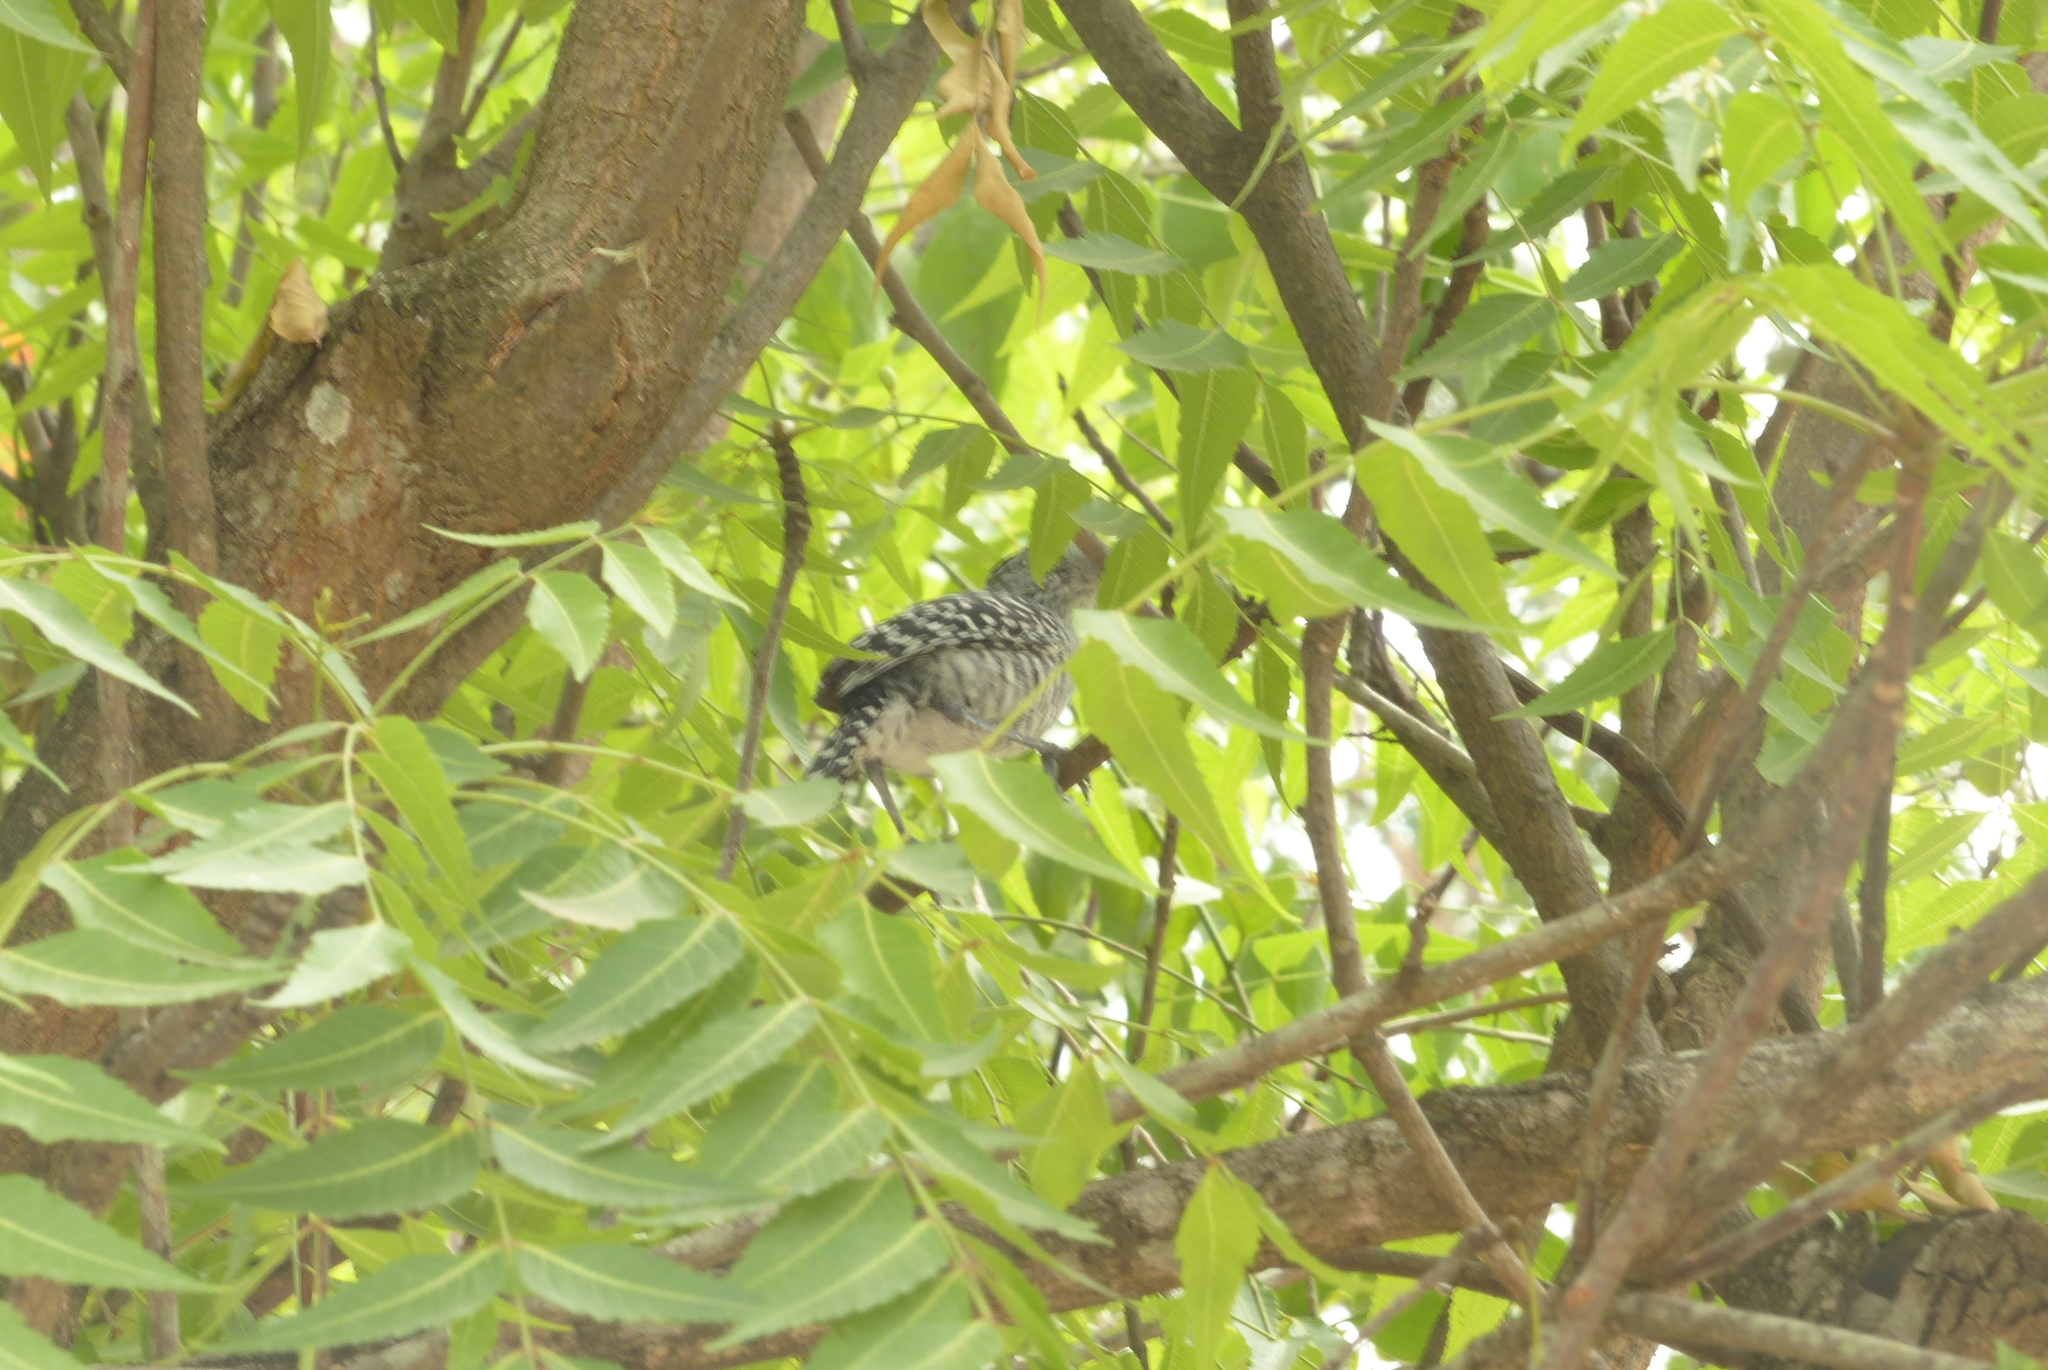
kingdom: Animalia
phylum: Chordata
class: Aves
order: Passeriformes
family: Thamnophilidae
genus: Thamnophilus
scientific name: Thamnophilus doliatus
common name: Barred antshrike
